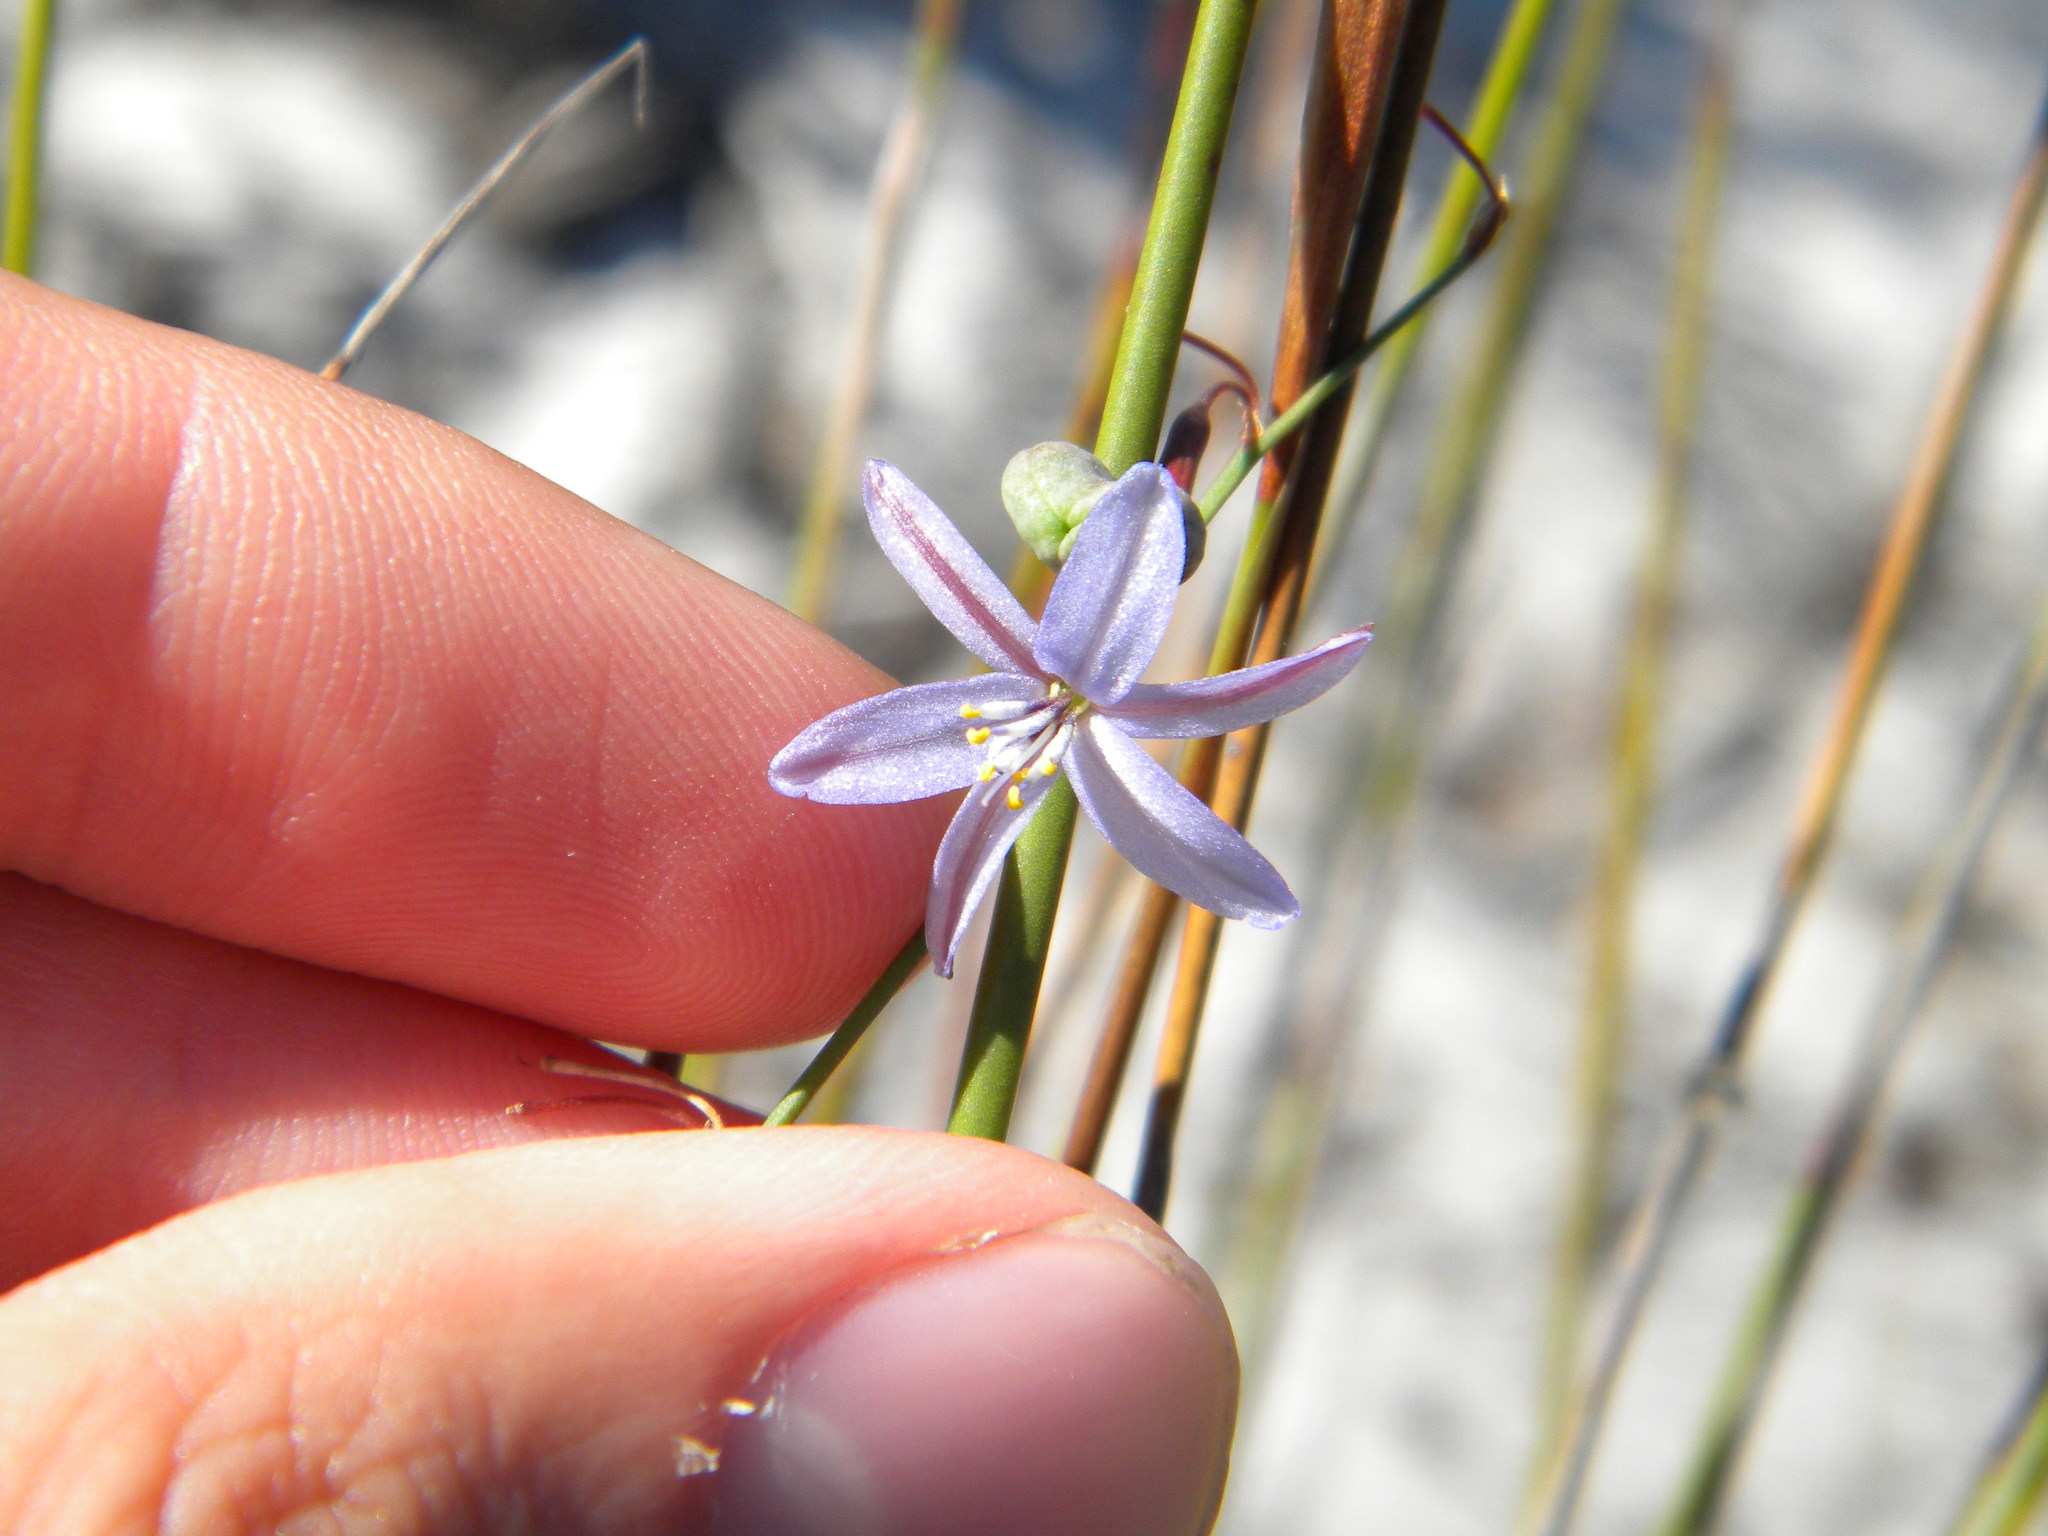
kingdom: Plantae
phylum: Tracheophyta
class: Liliopsida
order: Asparagales
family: Asphodelaceae
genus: Caesia
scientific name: Caesia contorta
